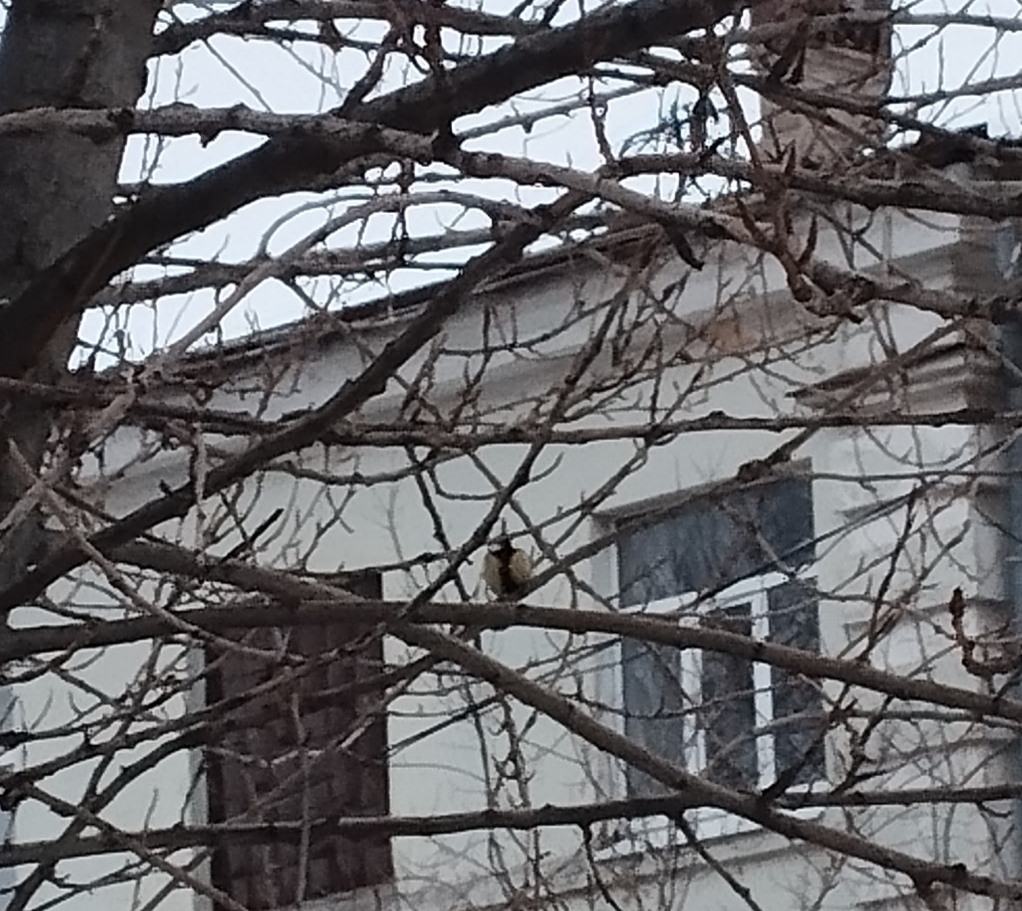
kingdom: Animalia
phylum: Chordata
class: Aves
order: Passeriformes
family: Paridae
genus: Parus
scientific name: Parus major
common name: Great tit
